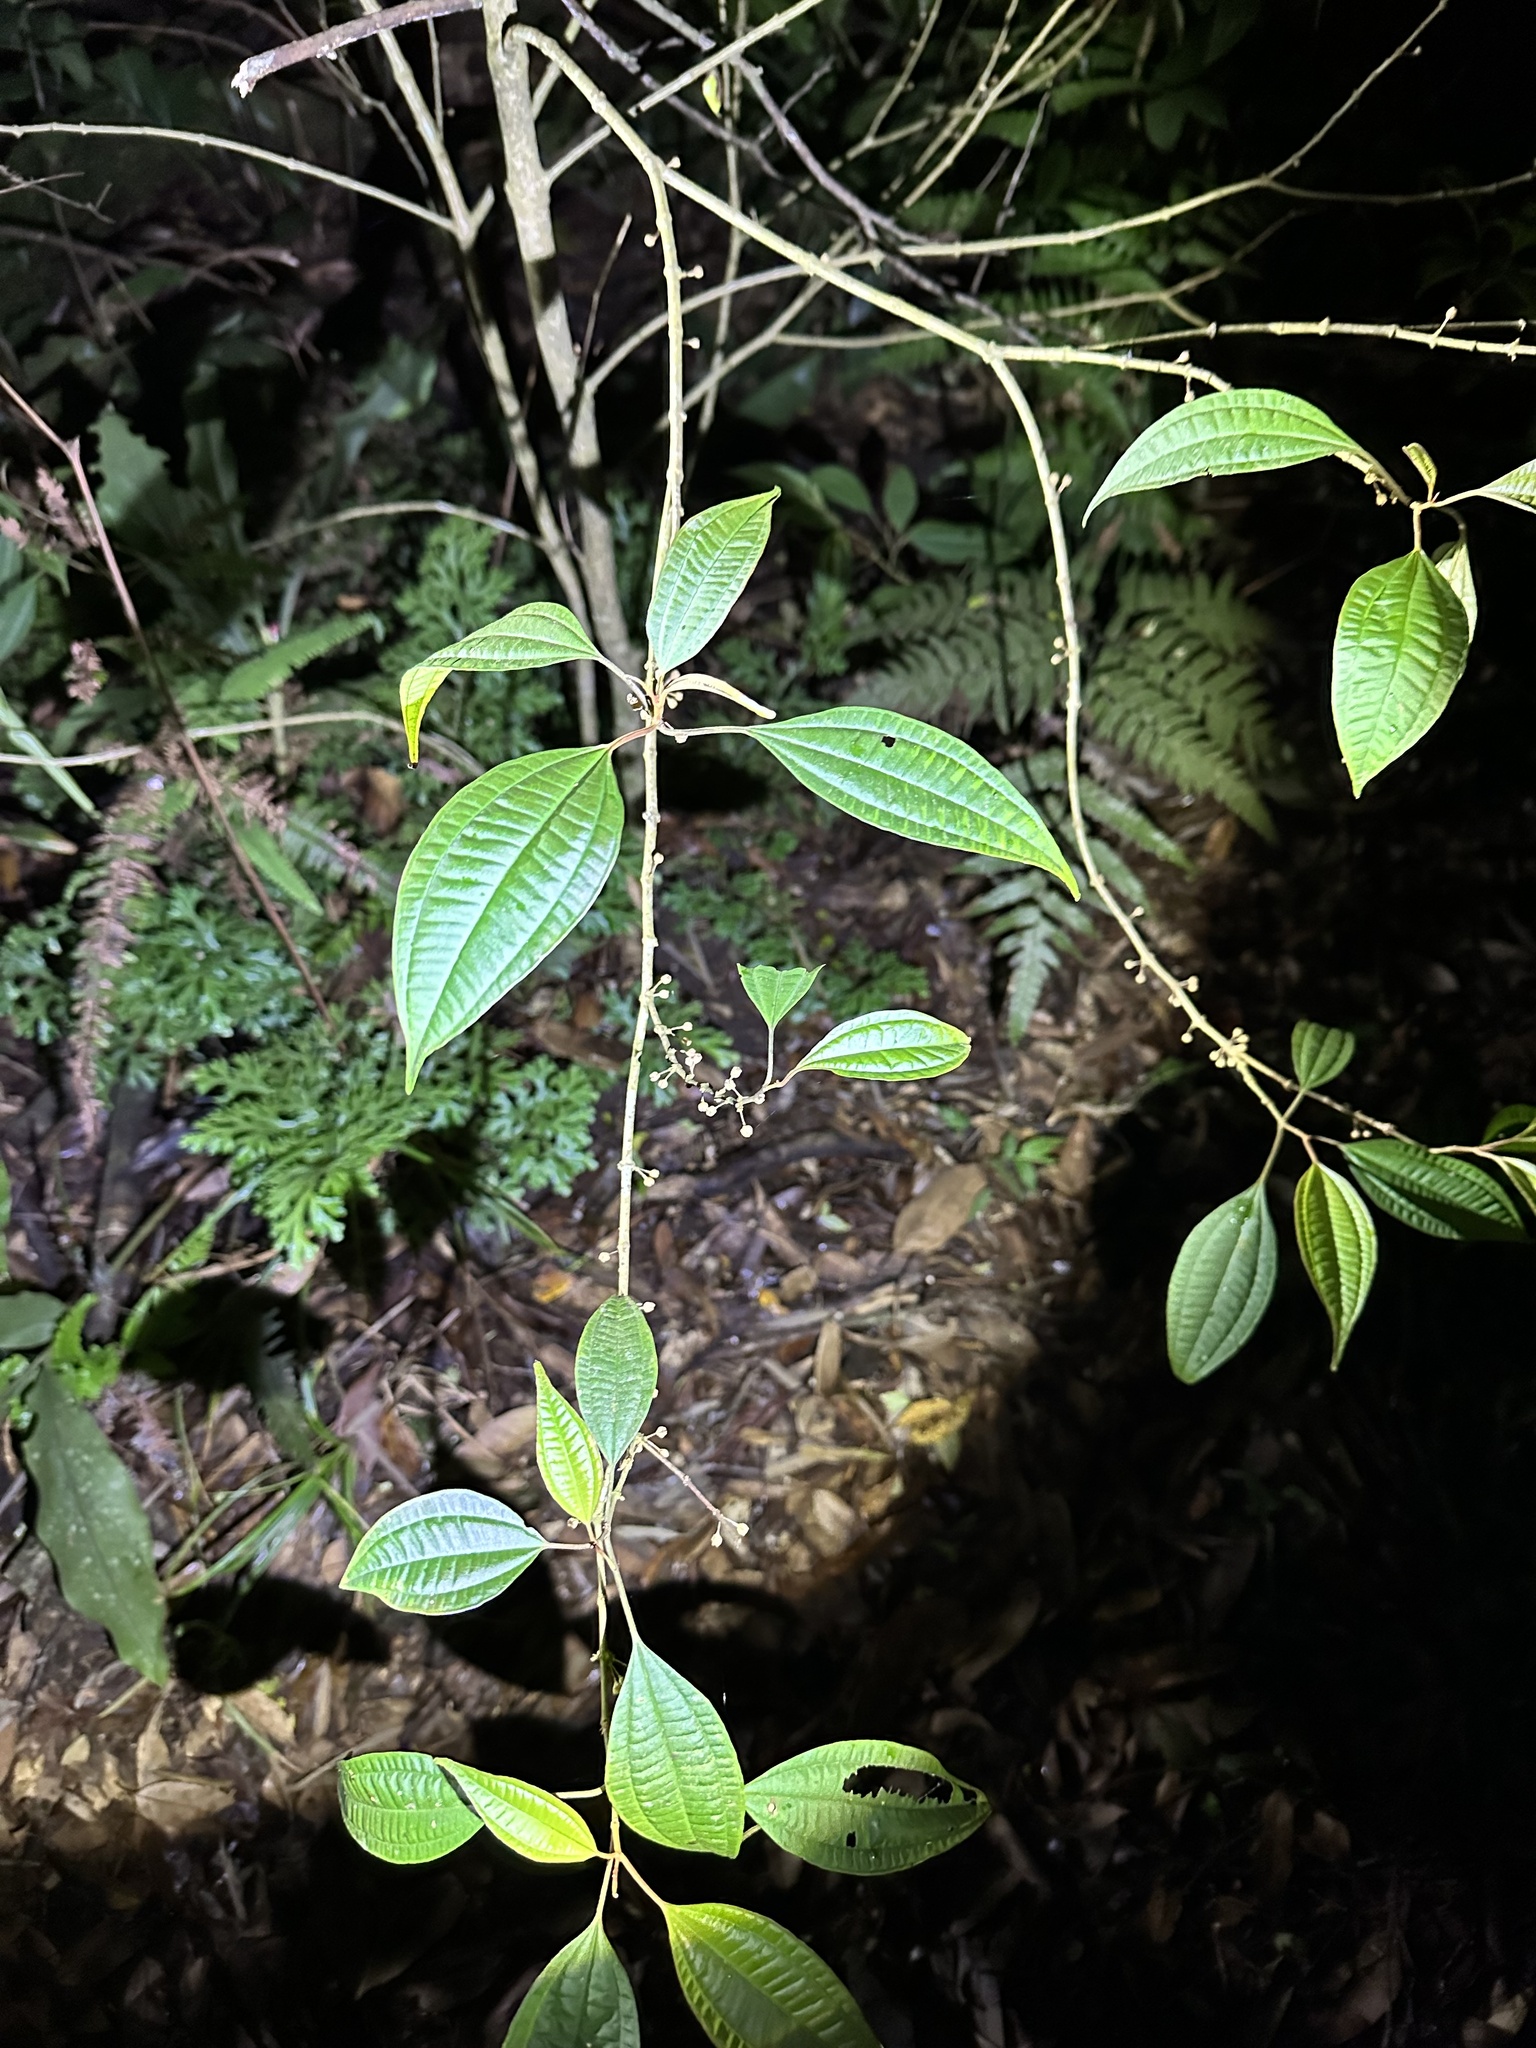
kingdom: Plantae
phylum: Tracheophyta
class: Magnoliopsida
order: Myrtales
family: Melastomataceae
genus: Blastus
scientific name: Blastus cochinchinensis
